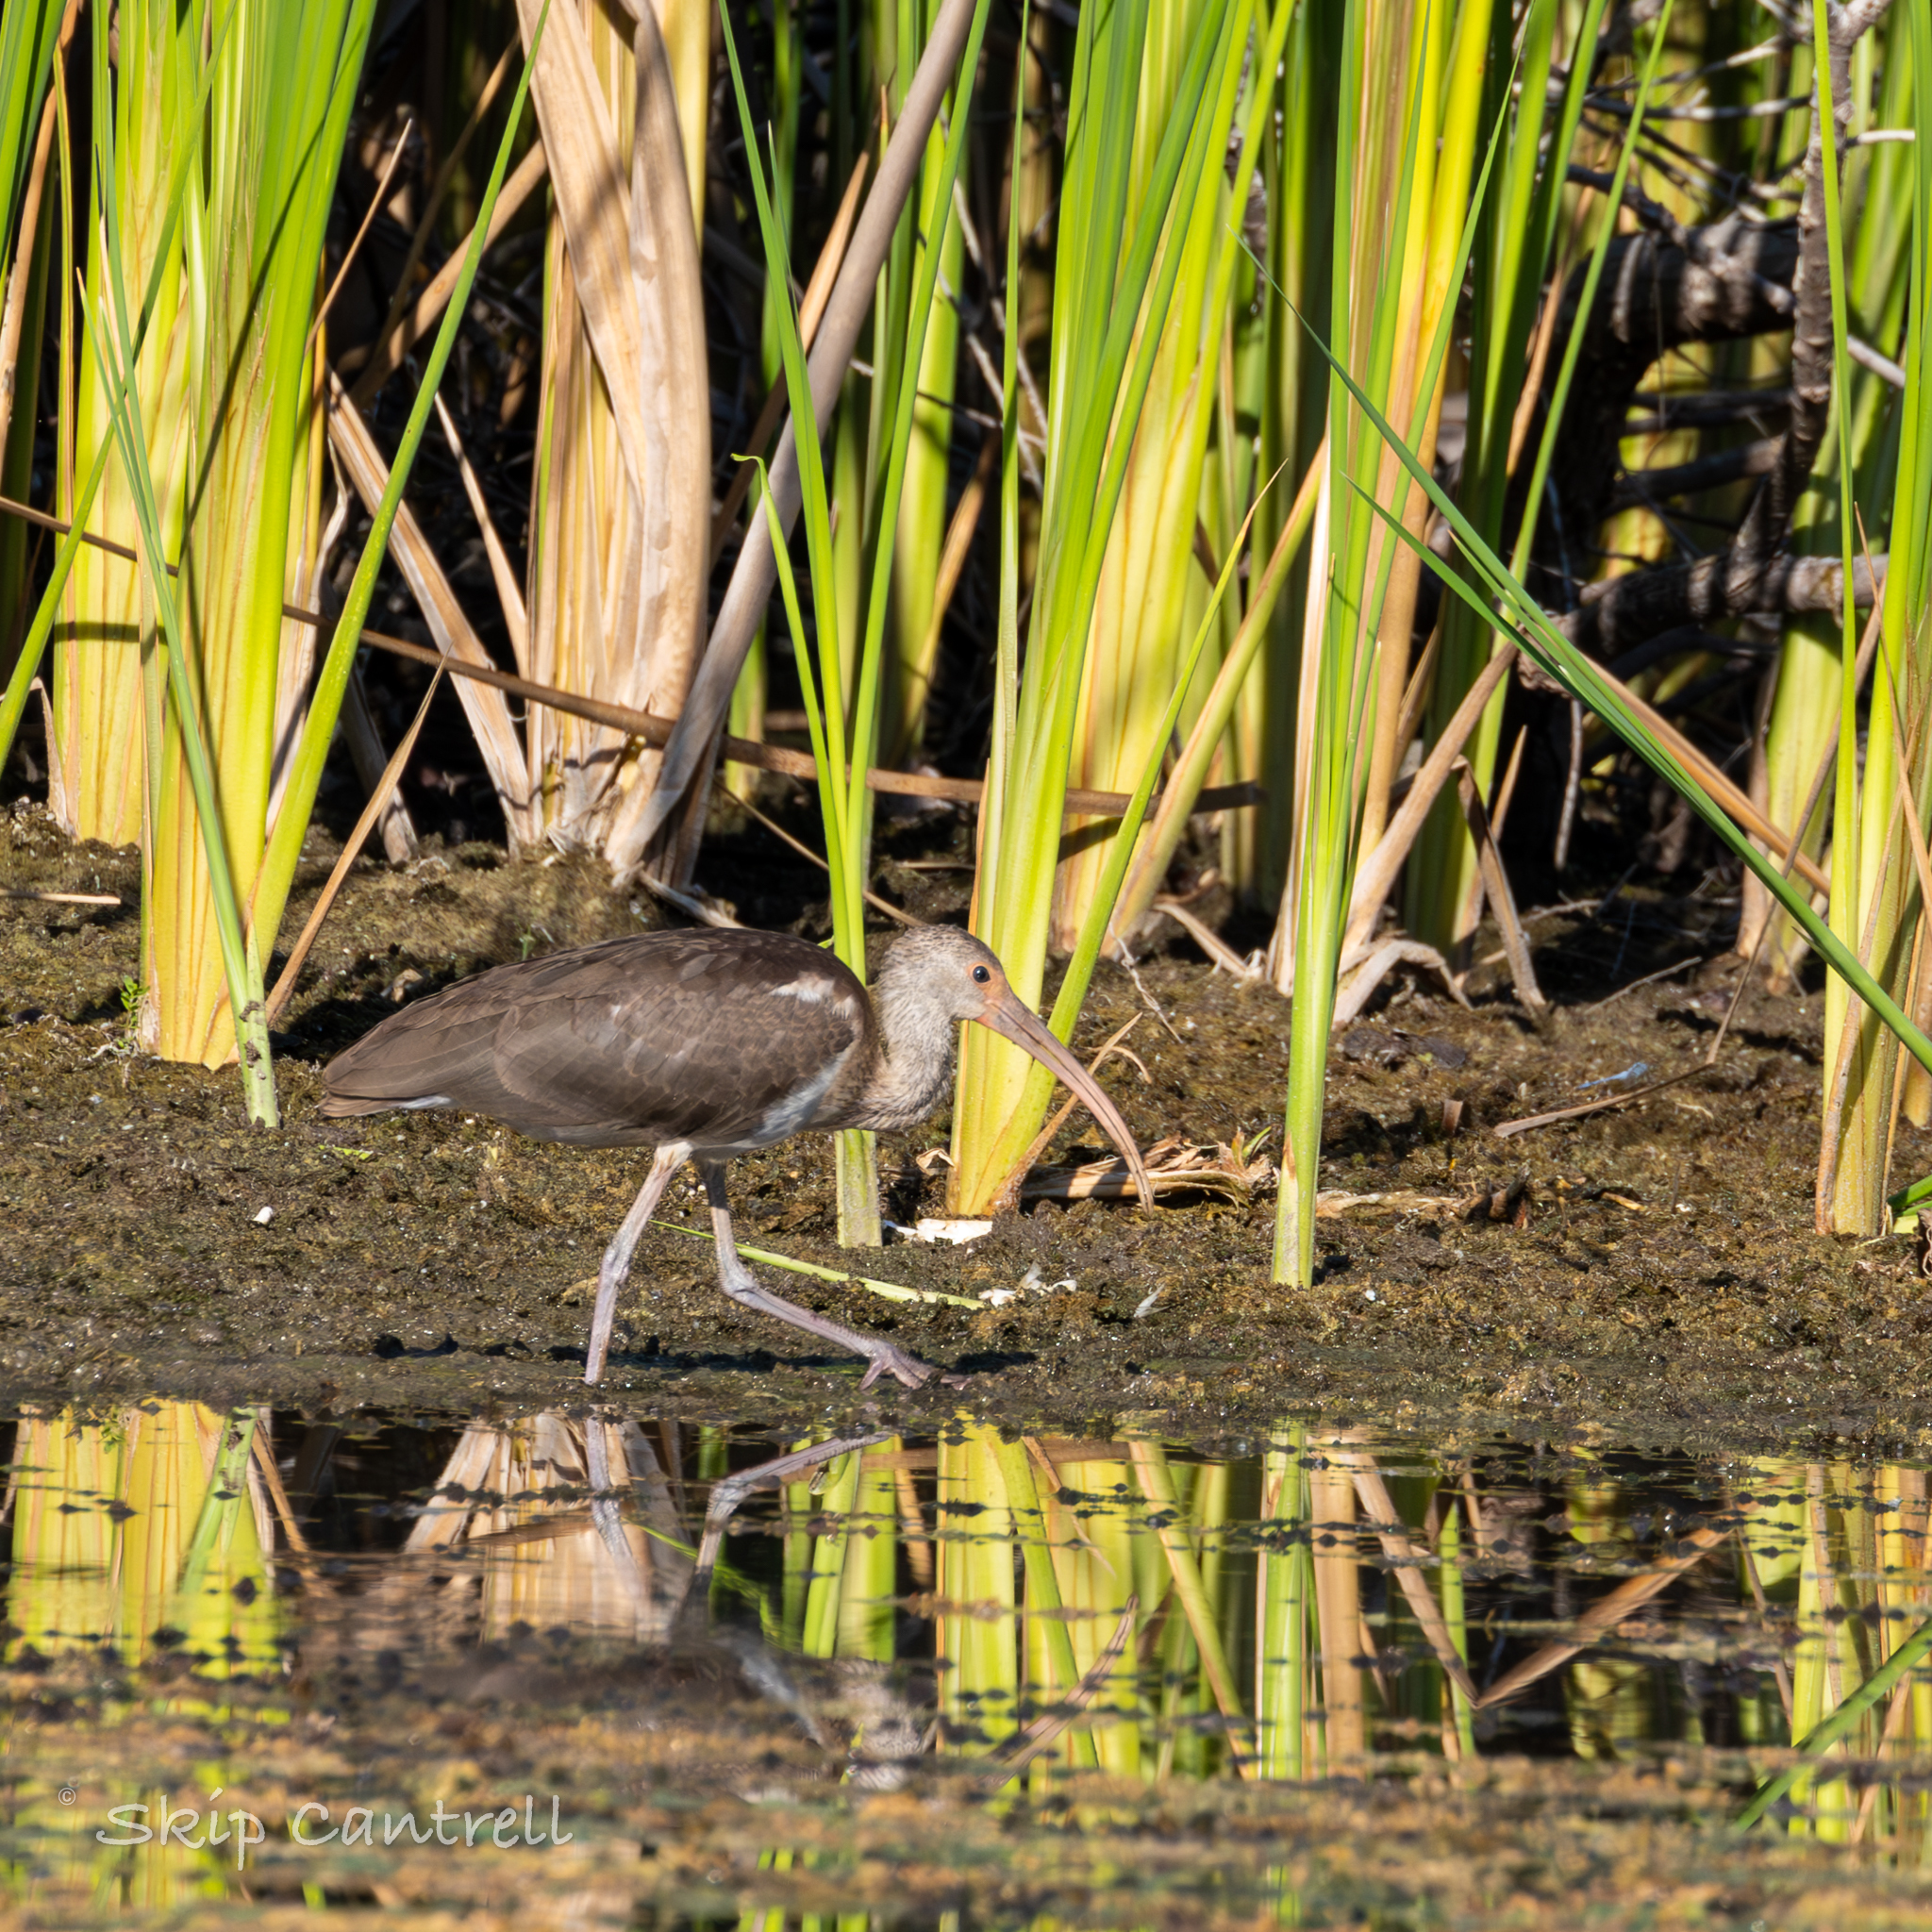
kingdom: Animalia
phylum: Chordata
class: Aves
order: Pelecaniformes
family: Threskiornithidae
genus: Eudocimus
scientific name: Eudocimus albus
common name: White ibis
